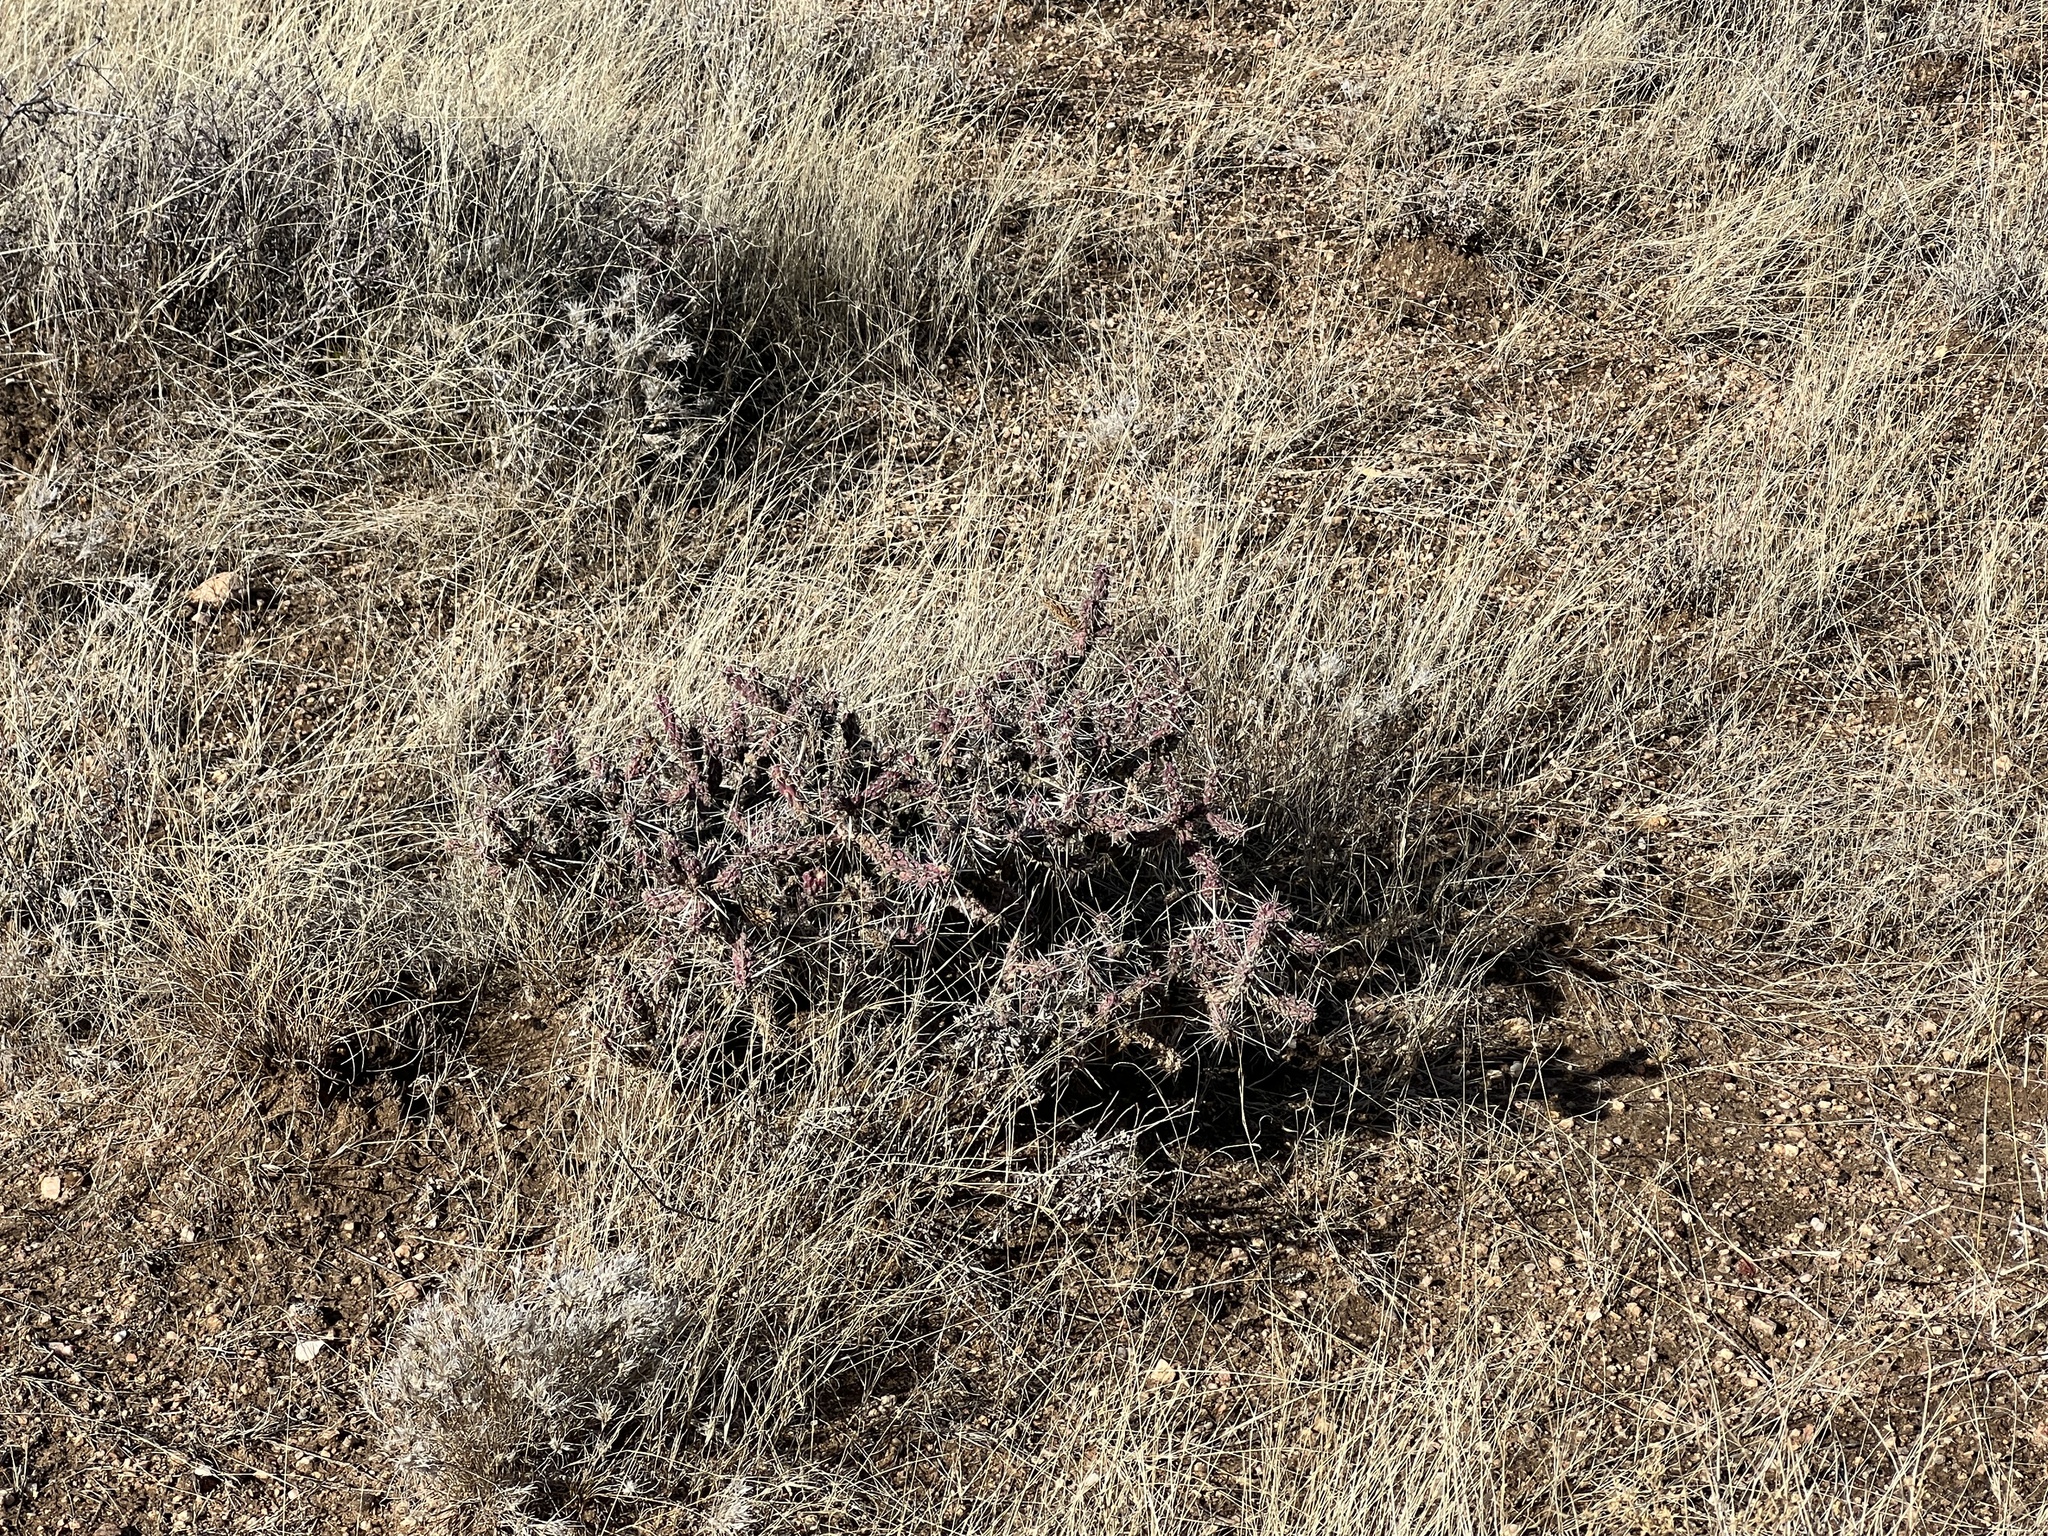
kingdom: Plantae
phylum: Tracheophyta
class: Magnoliopsida
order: Caryophyllales
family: Cactaceae
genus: Cylindropuntia
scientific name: Cylindropuntia whipplei
